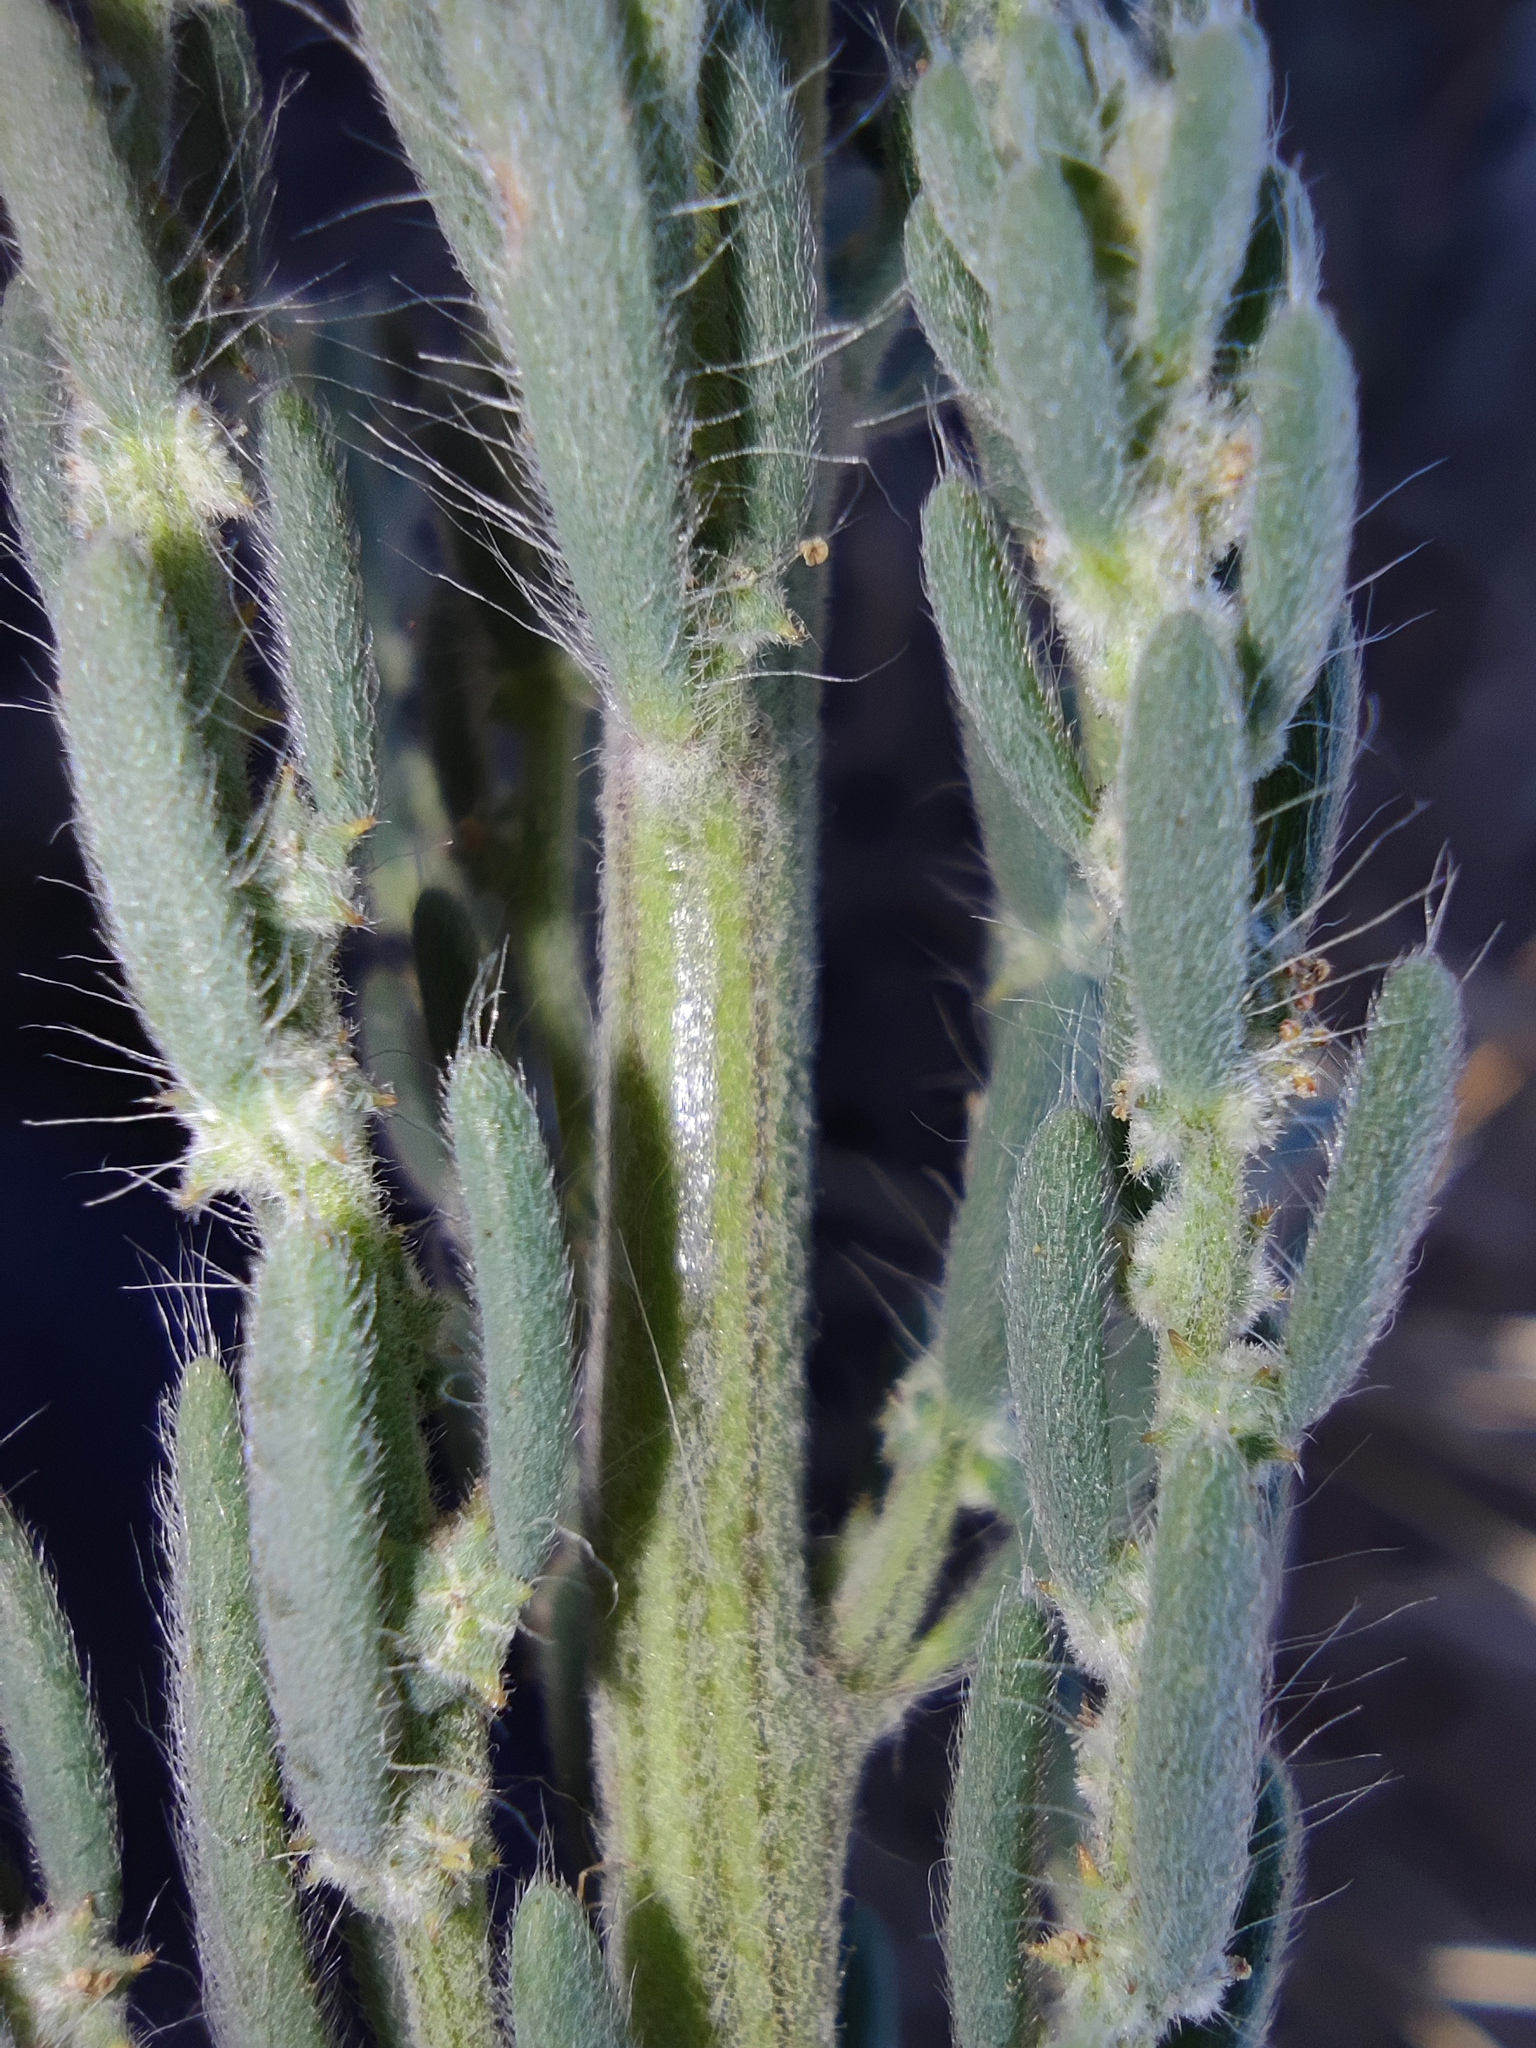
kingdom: Plantae
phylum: Tracheophyta
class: Magnoliopsida
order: Caryophyllales
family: Amaranthaceae
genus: Sedobassia
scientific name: Sedobassia sedoides
